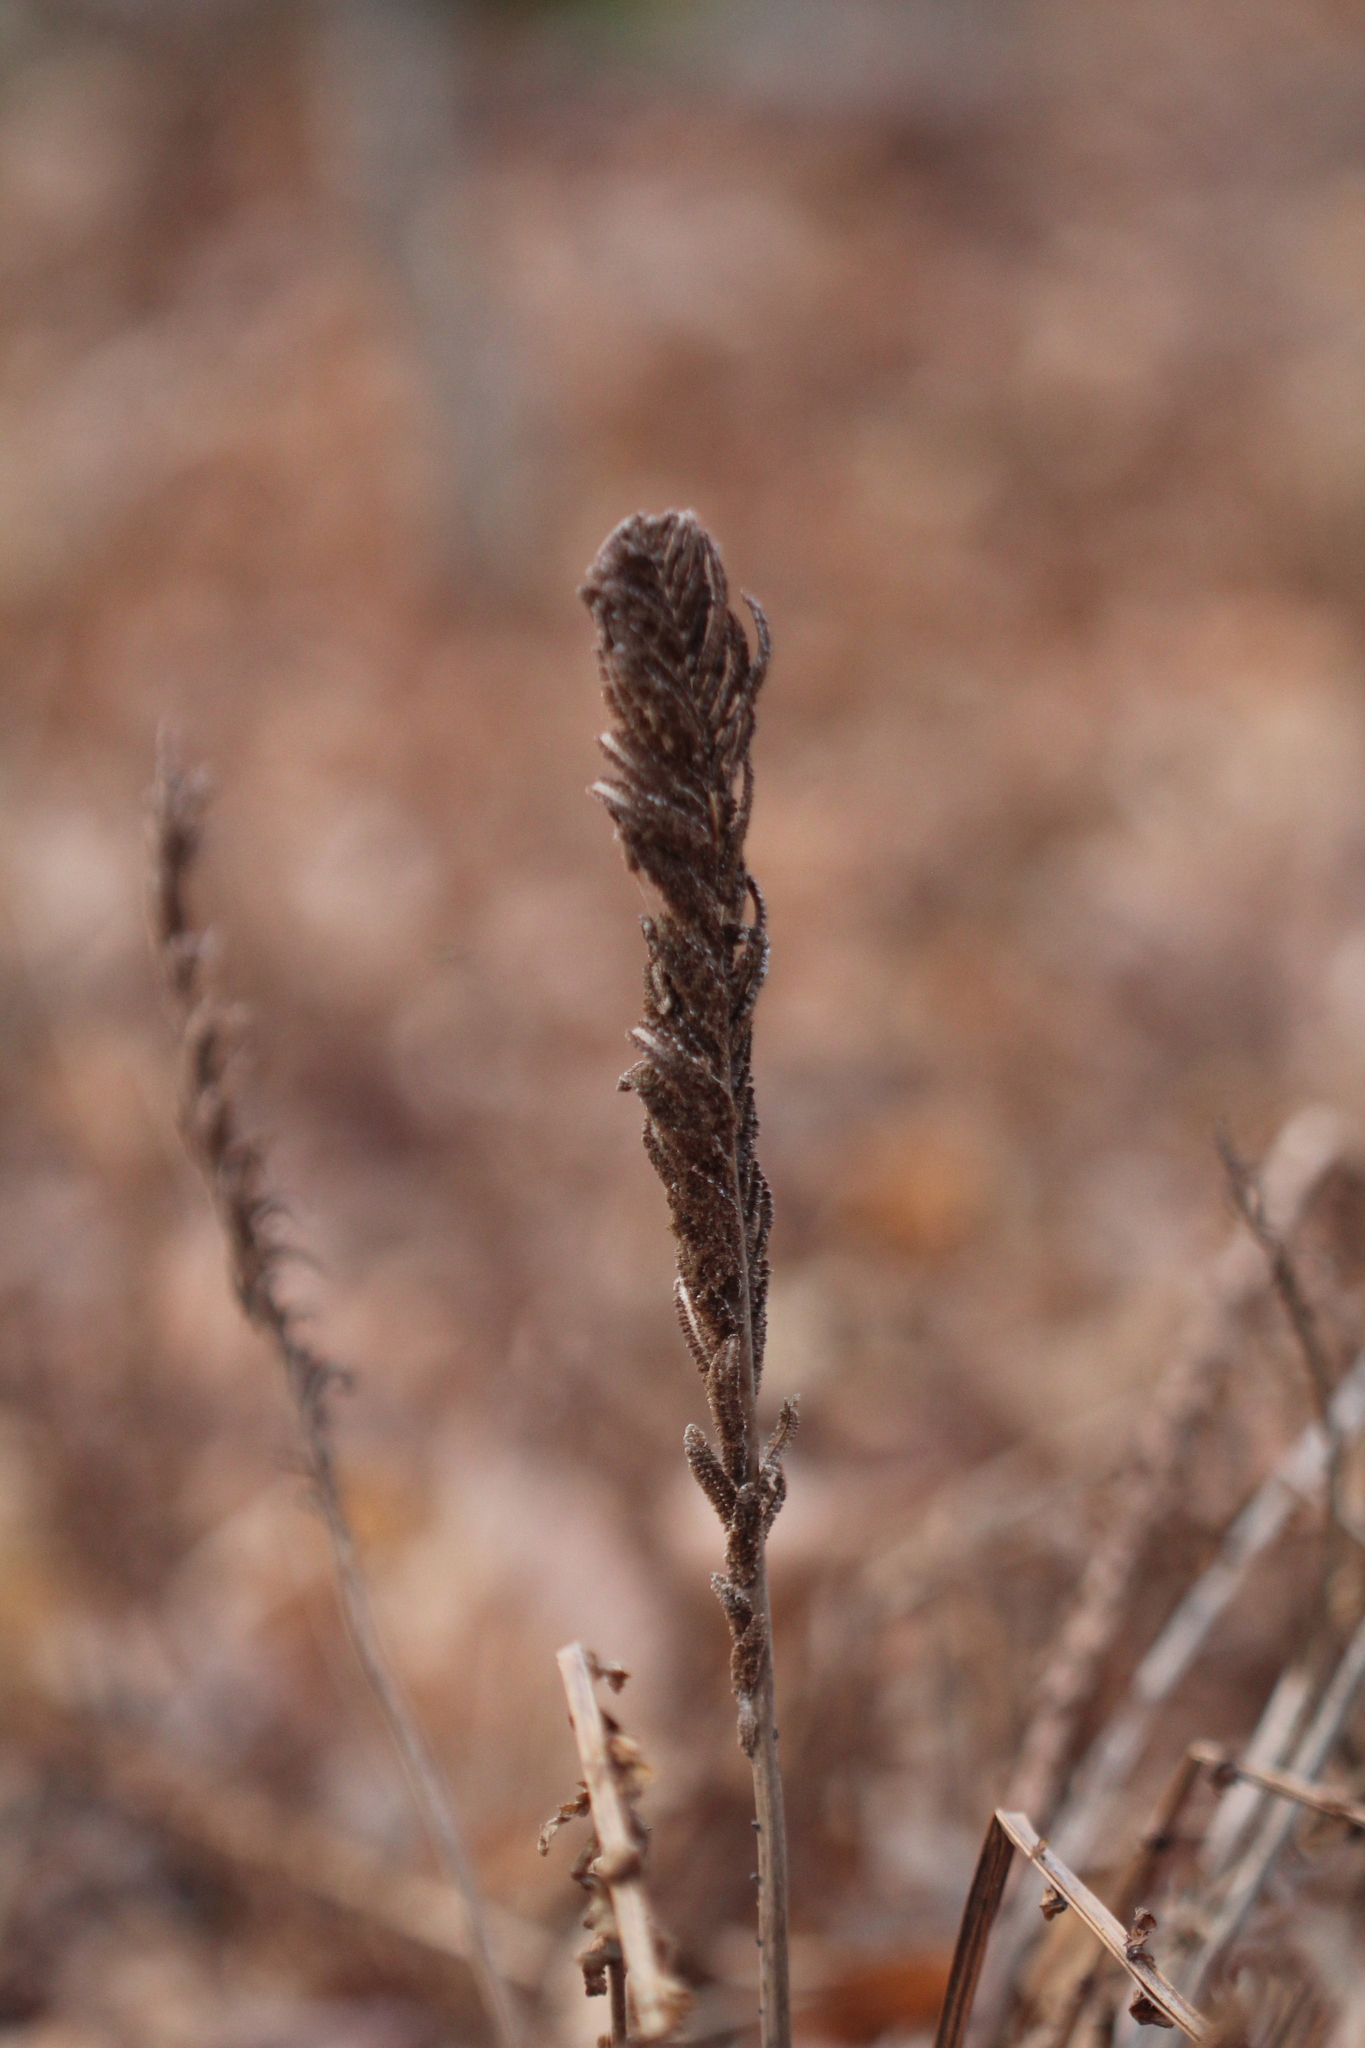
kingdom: Plantae
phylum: Tracheophyta
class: Polypodiopsida
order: Polypodiales
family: Onocleaceae
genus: Matteuccia
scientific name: Matteuccia struthiopteris
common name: Ostrich fern
